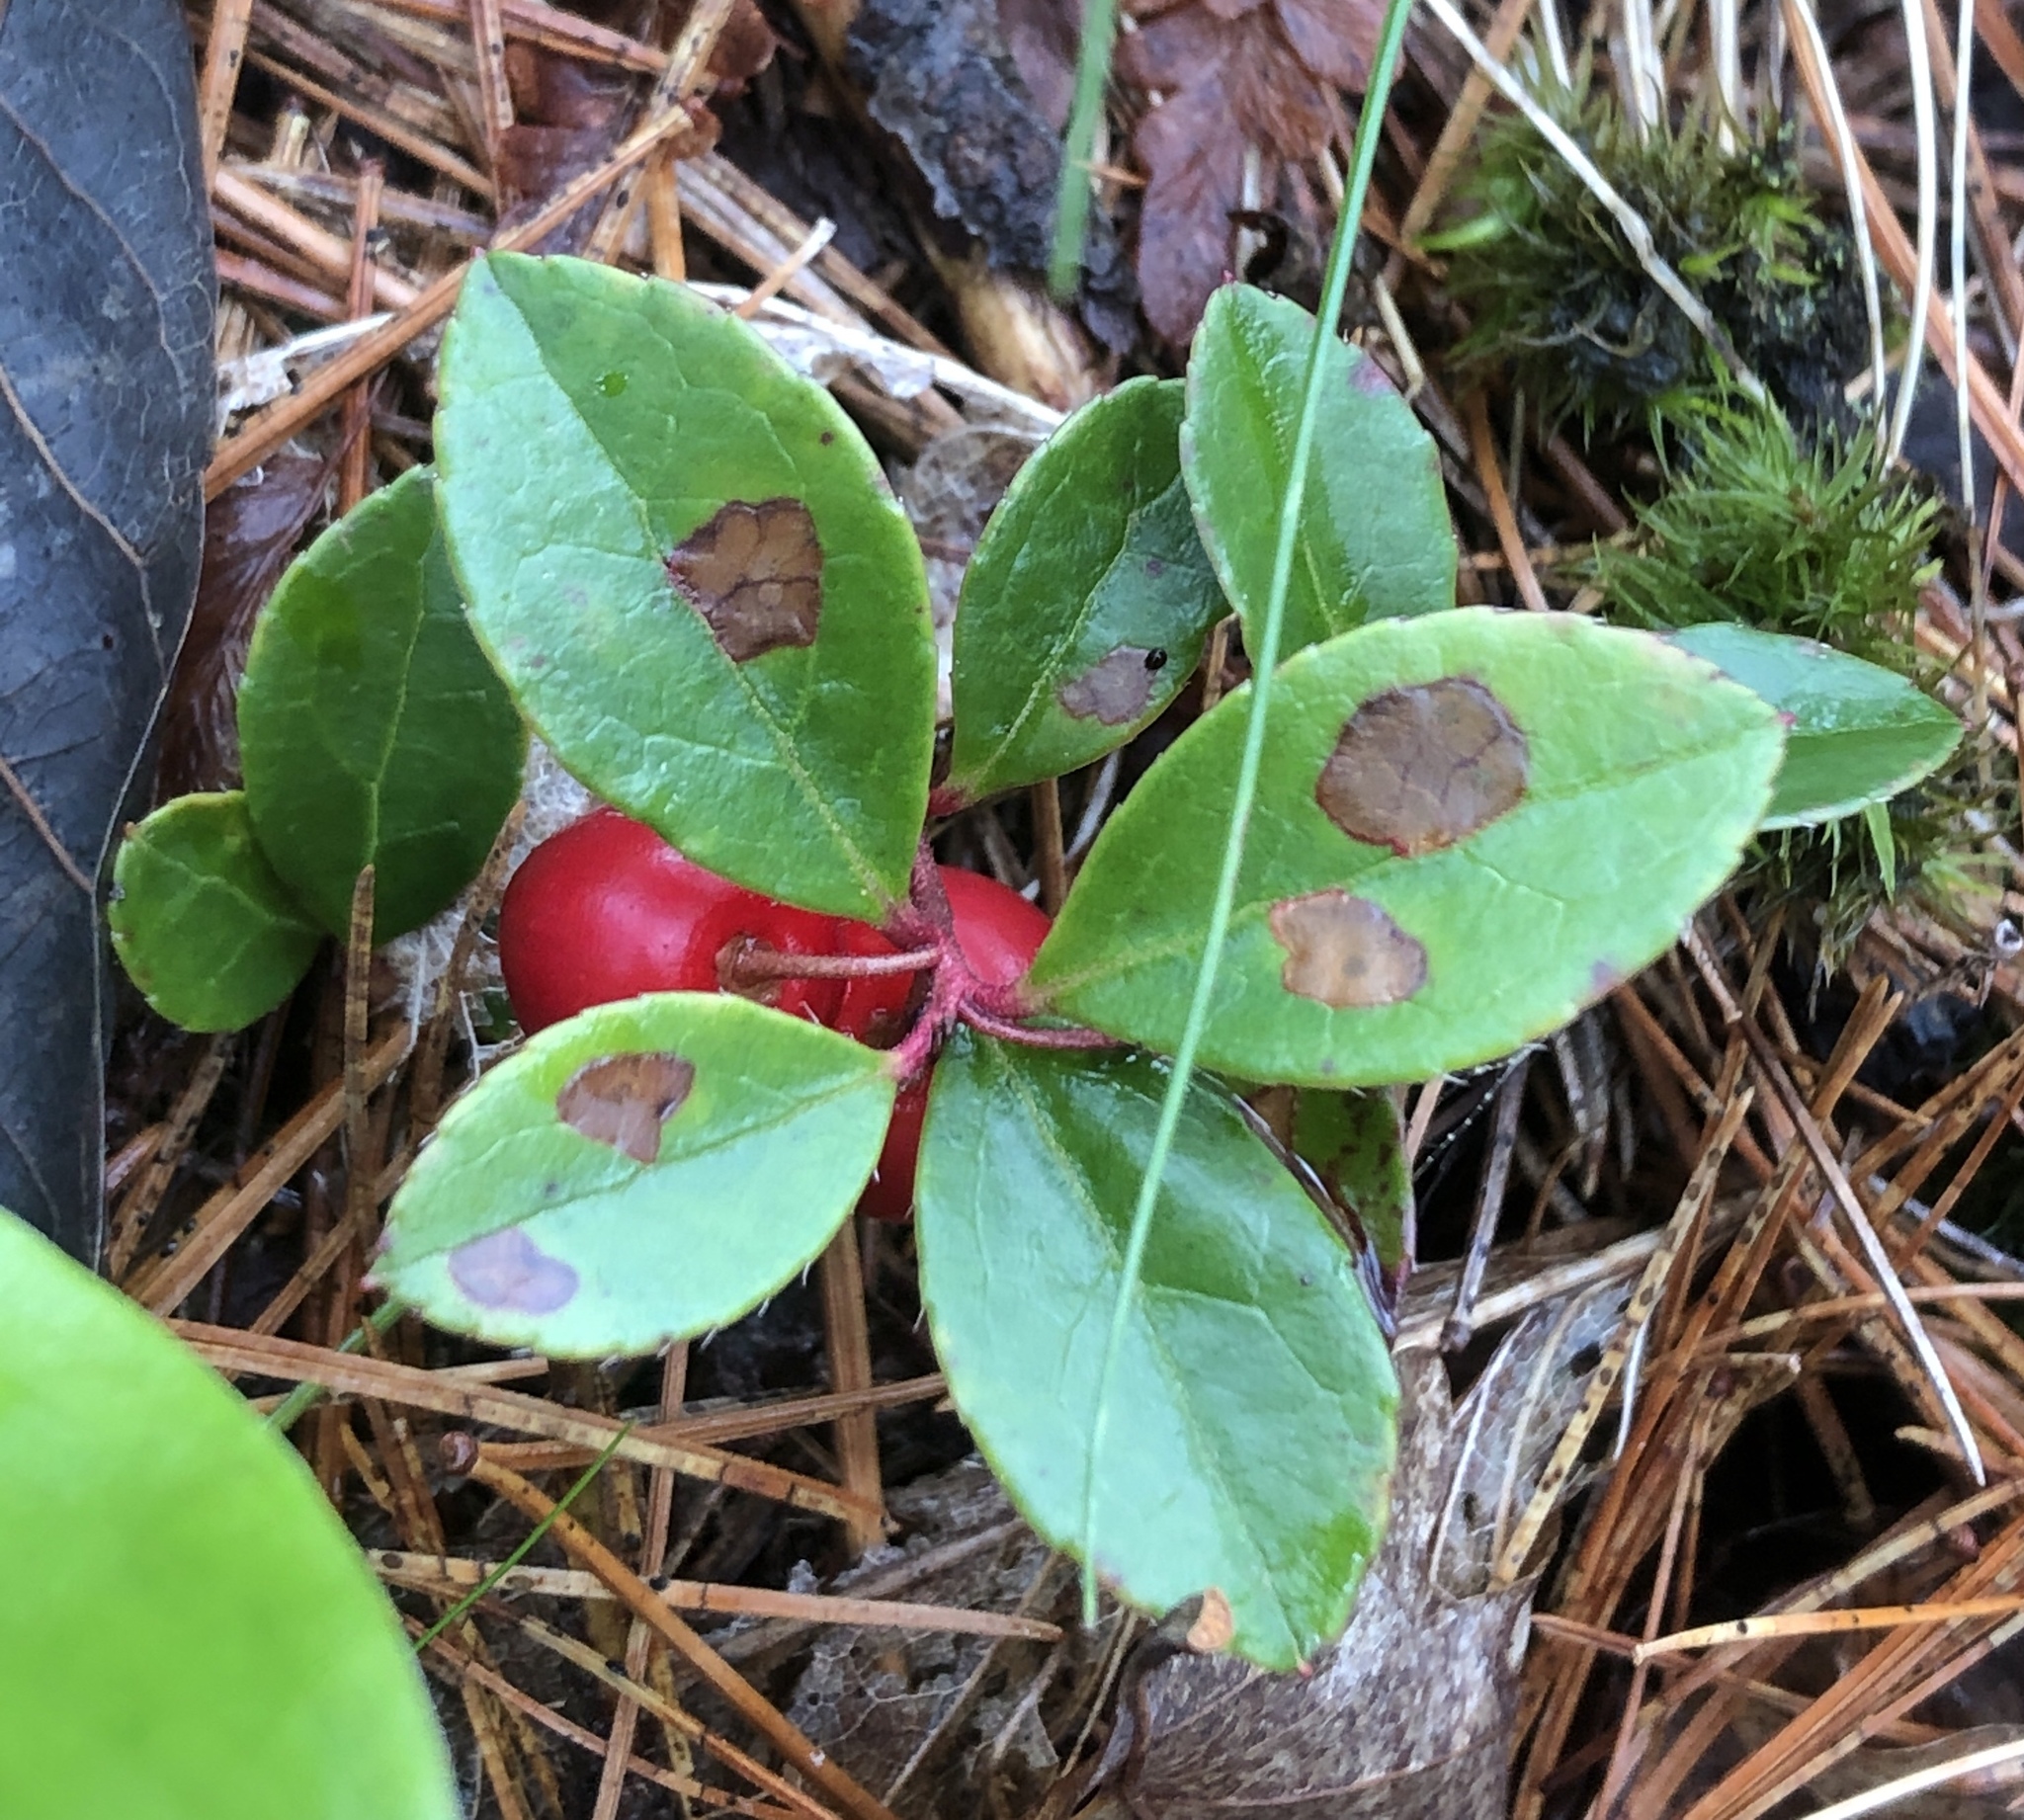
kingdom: Plantae
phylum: Tracheophyta
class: Magnoliopsida
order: Ericales
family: Ericaceae
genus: Gaultheria
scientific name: Gaultheria procumbens
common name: Checkerberry
